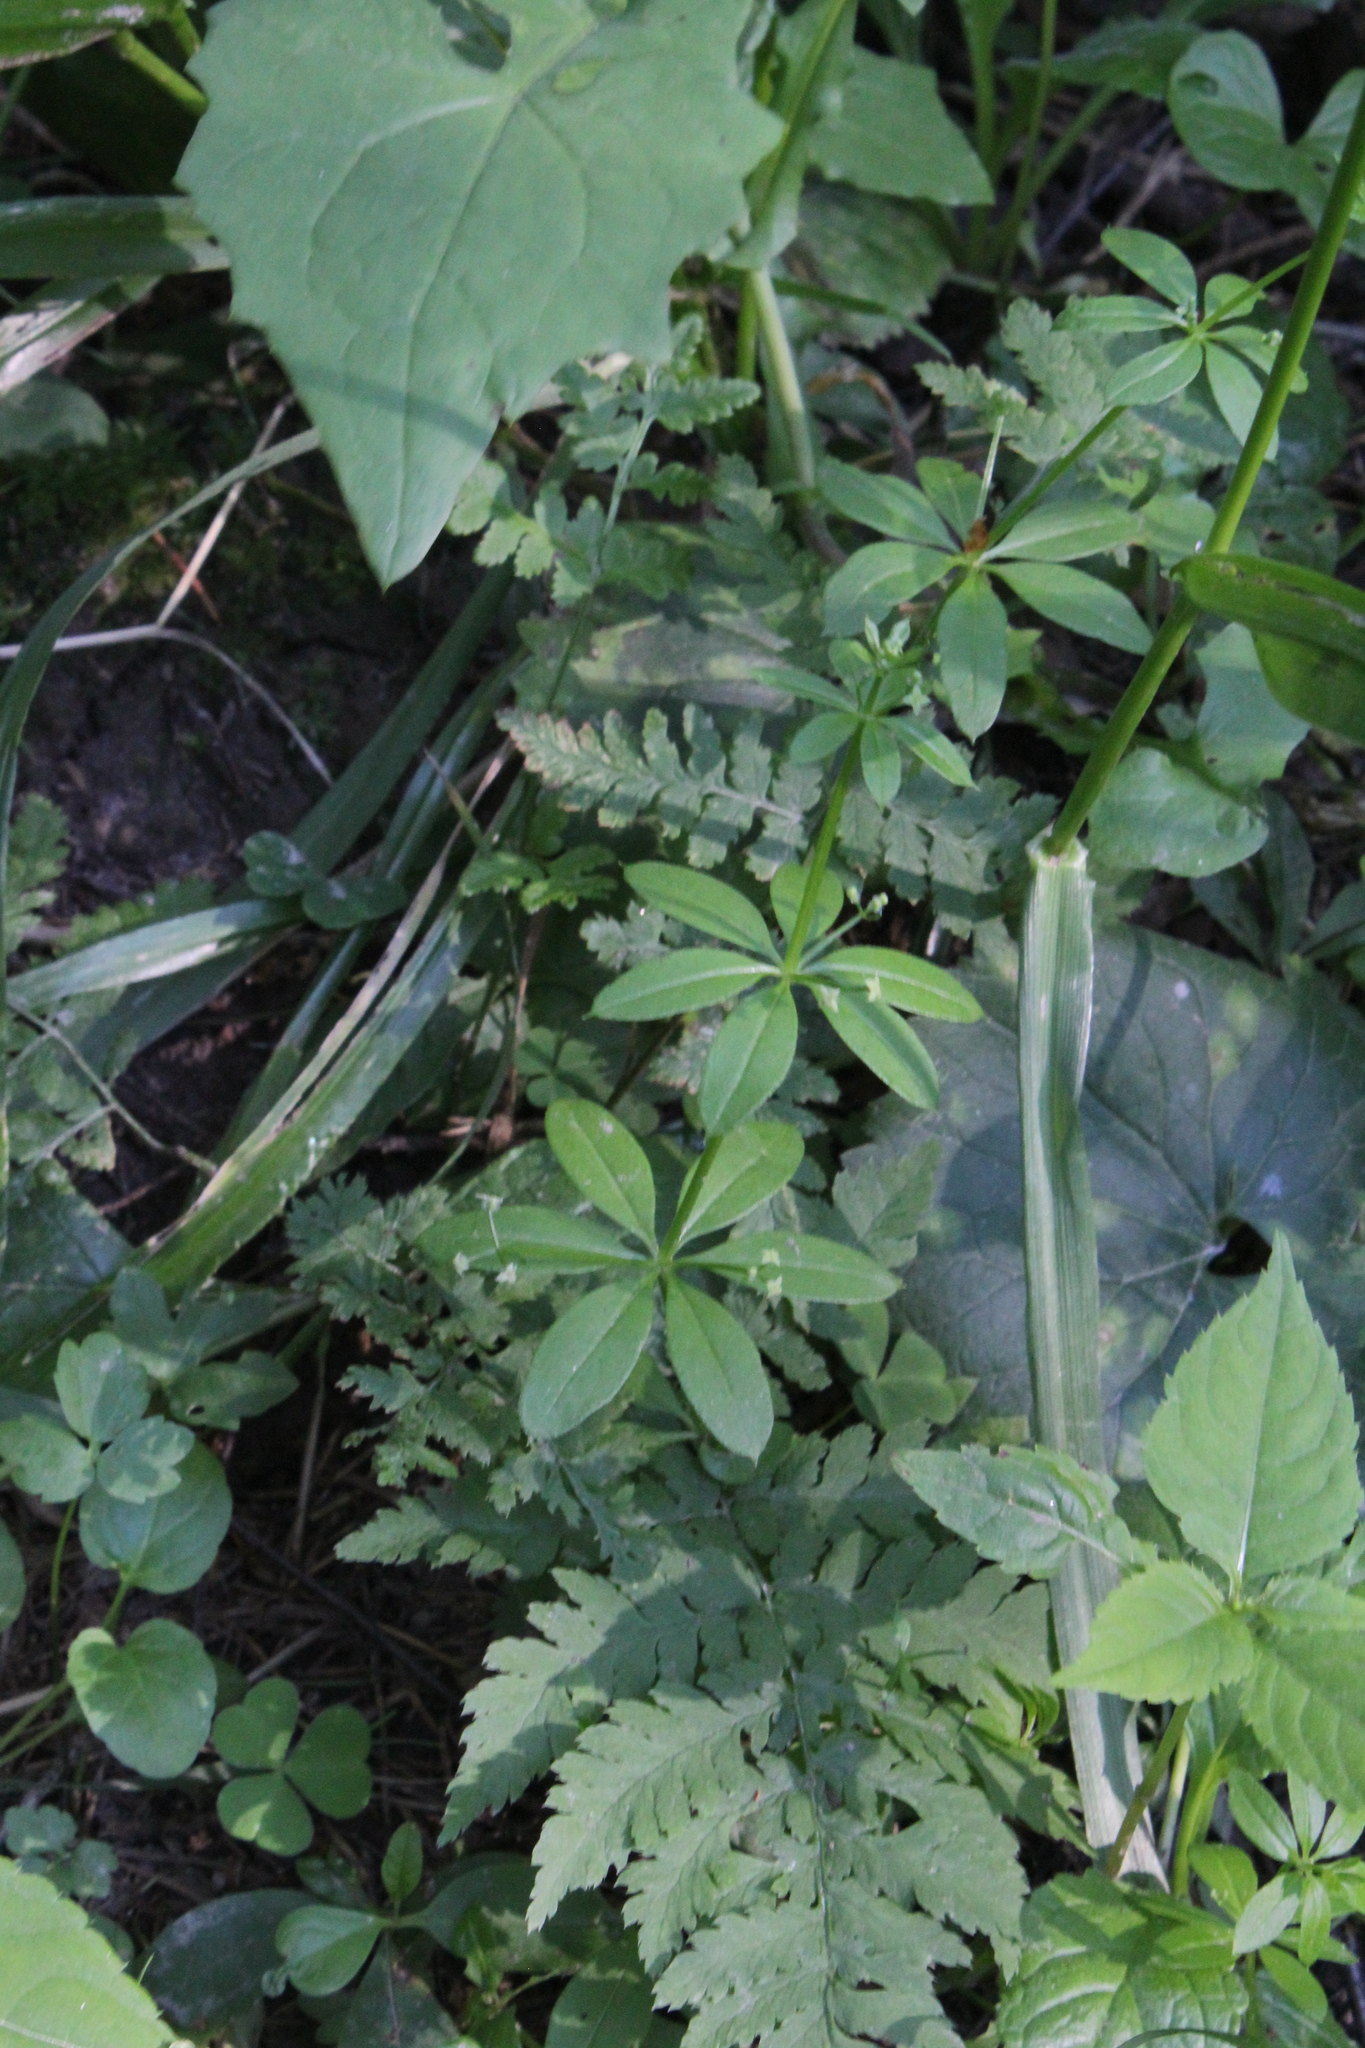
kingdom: Plantae
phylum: Tracheophyta
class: Magnoliopsida
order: Gentianales
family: Rubiaceae
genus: Galium
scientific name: Galium triflorum
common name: Fragrant bedstraw
